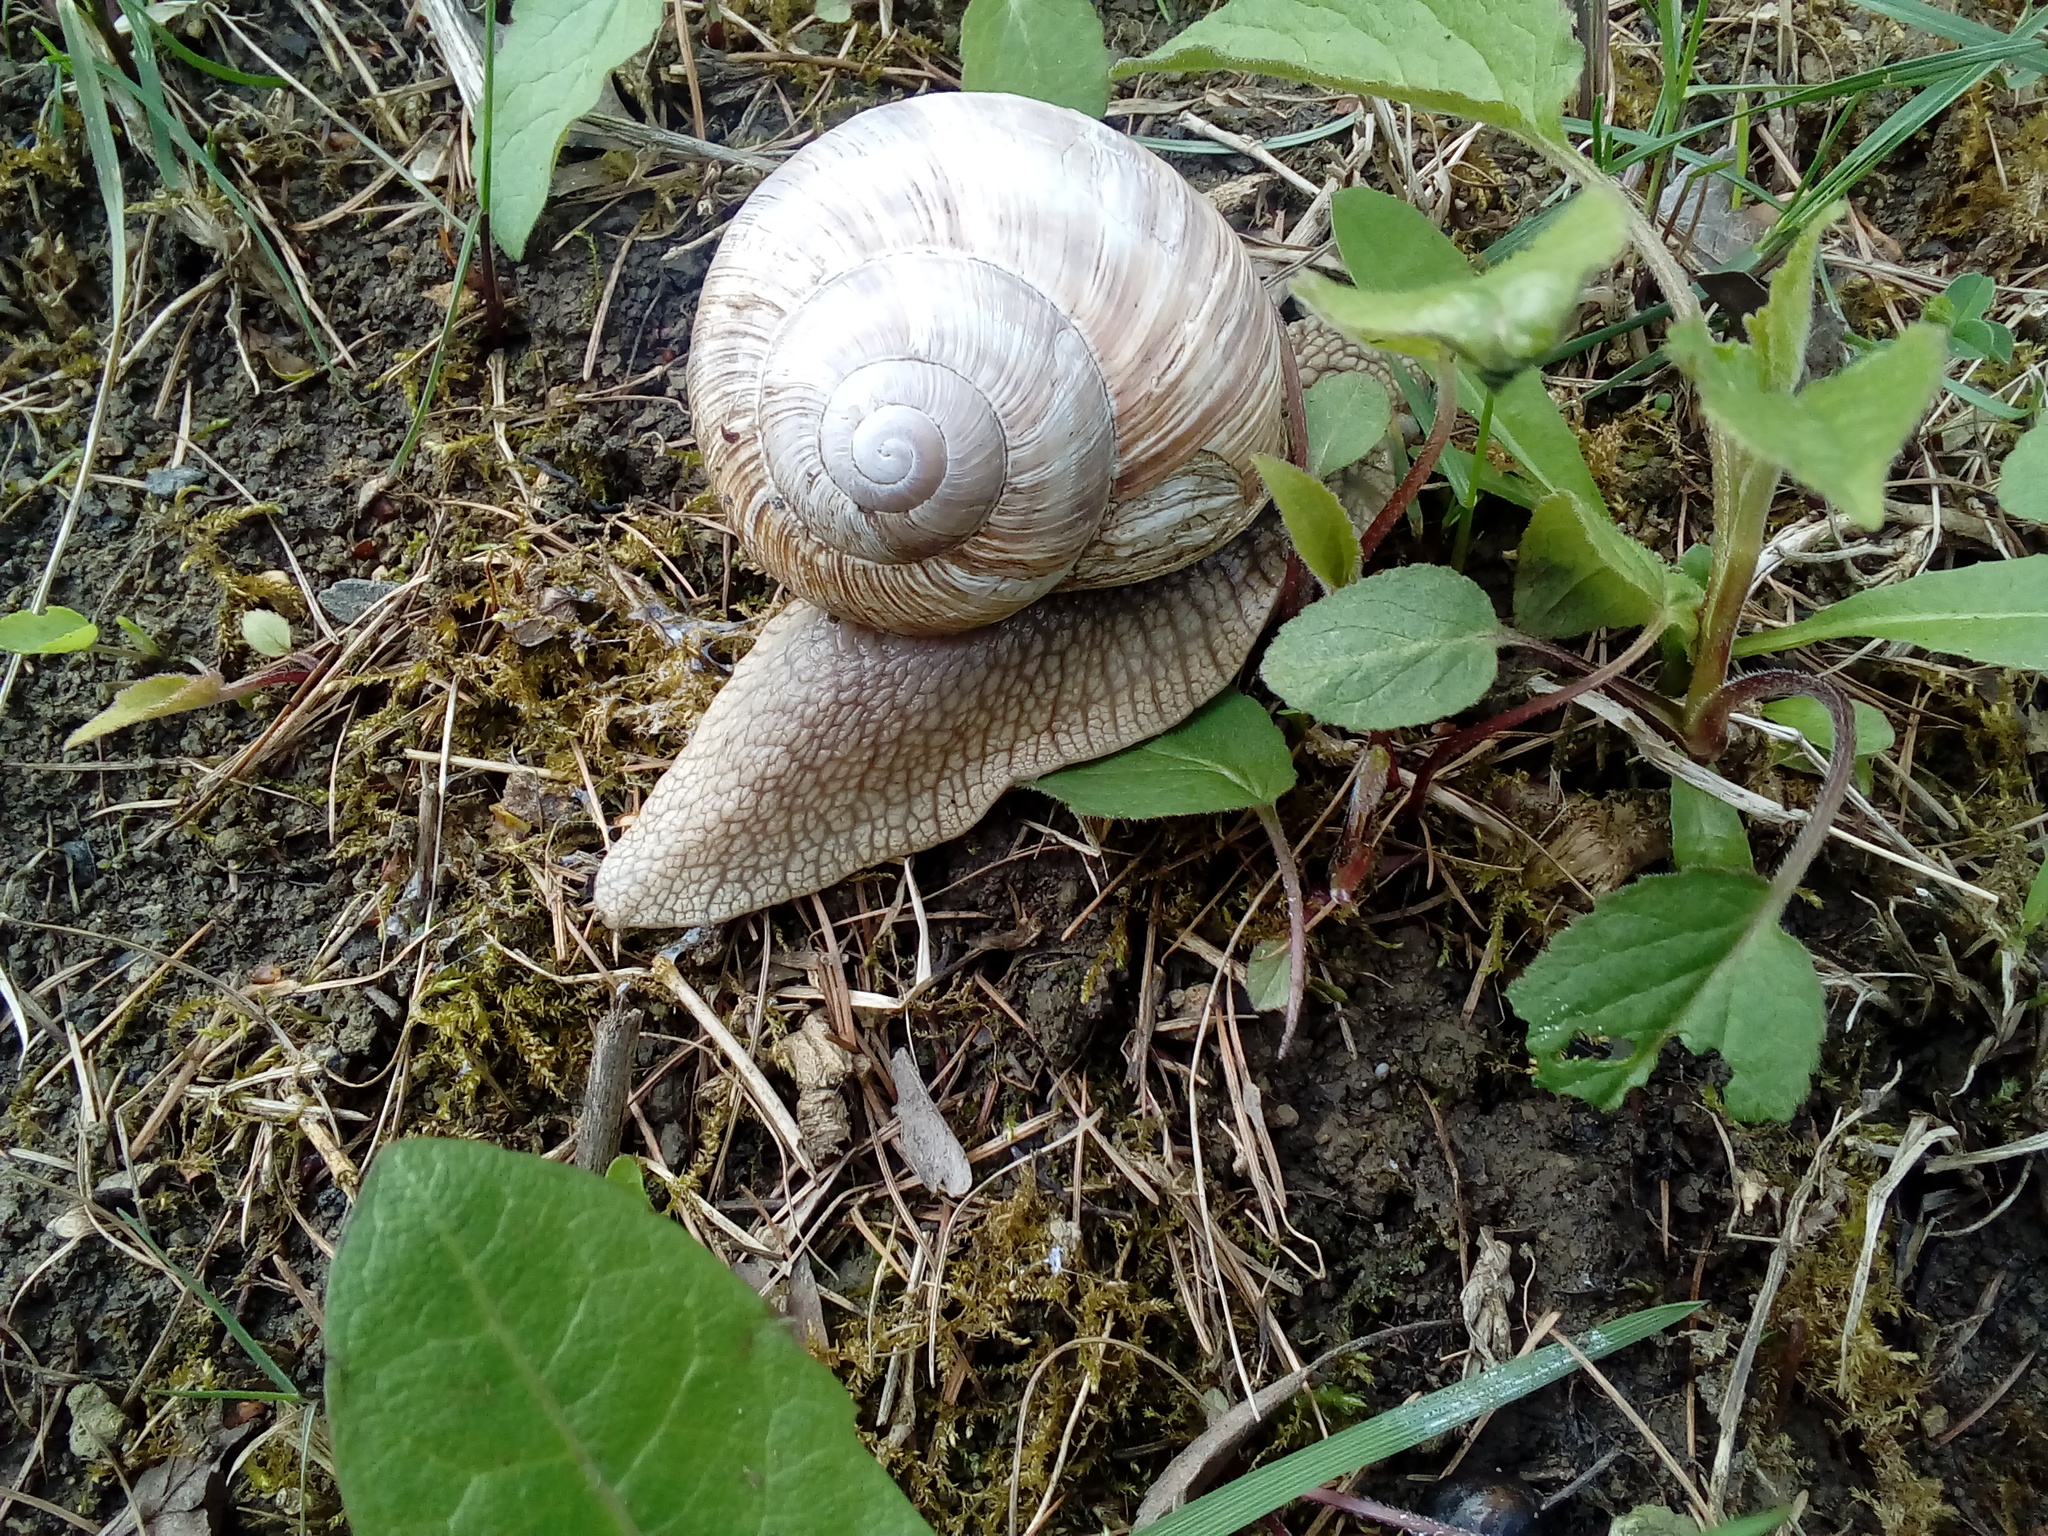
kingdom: Animalia
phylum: Mollusca
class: Gastropoda
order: Stylommatophora
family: Helicidae
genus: Helix
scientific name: Helix pomatia
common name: Roman snail
